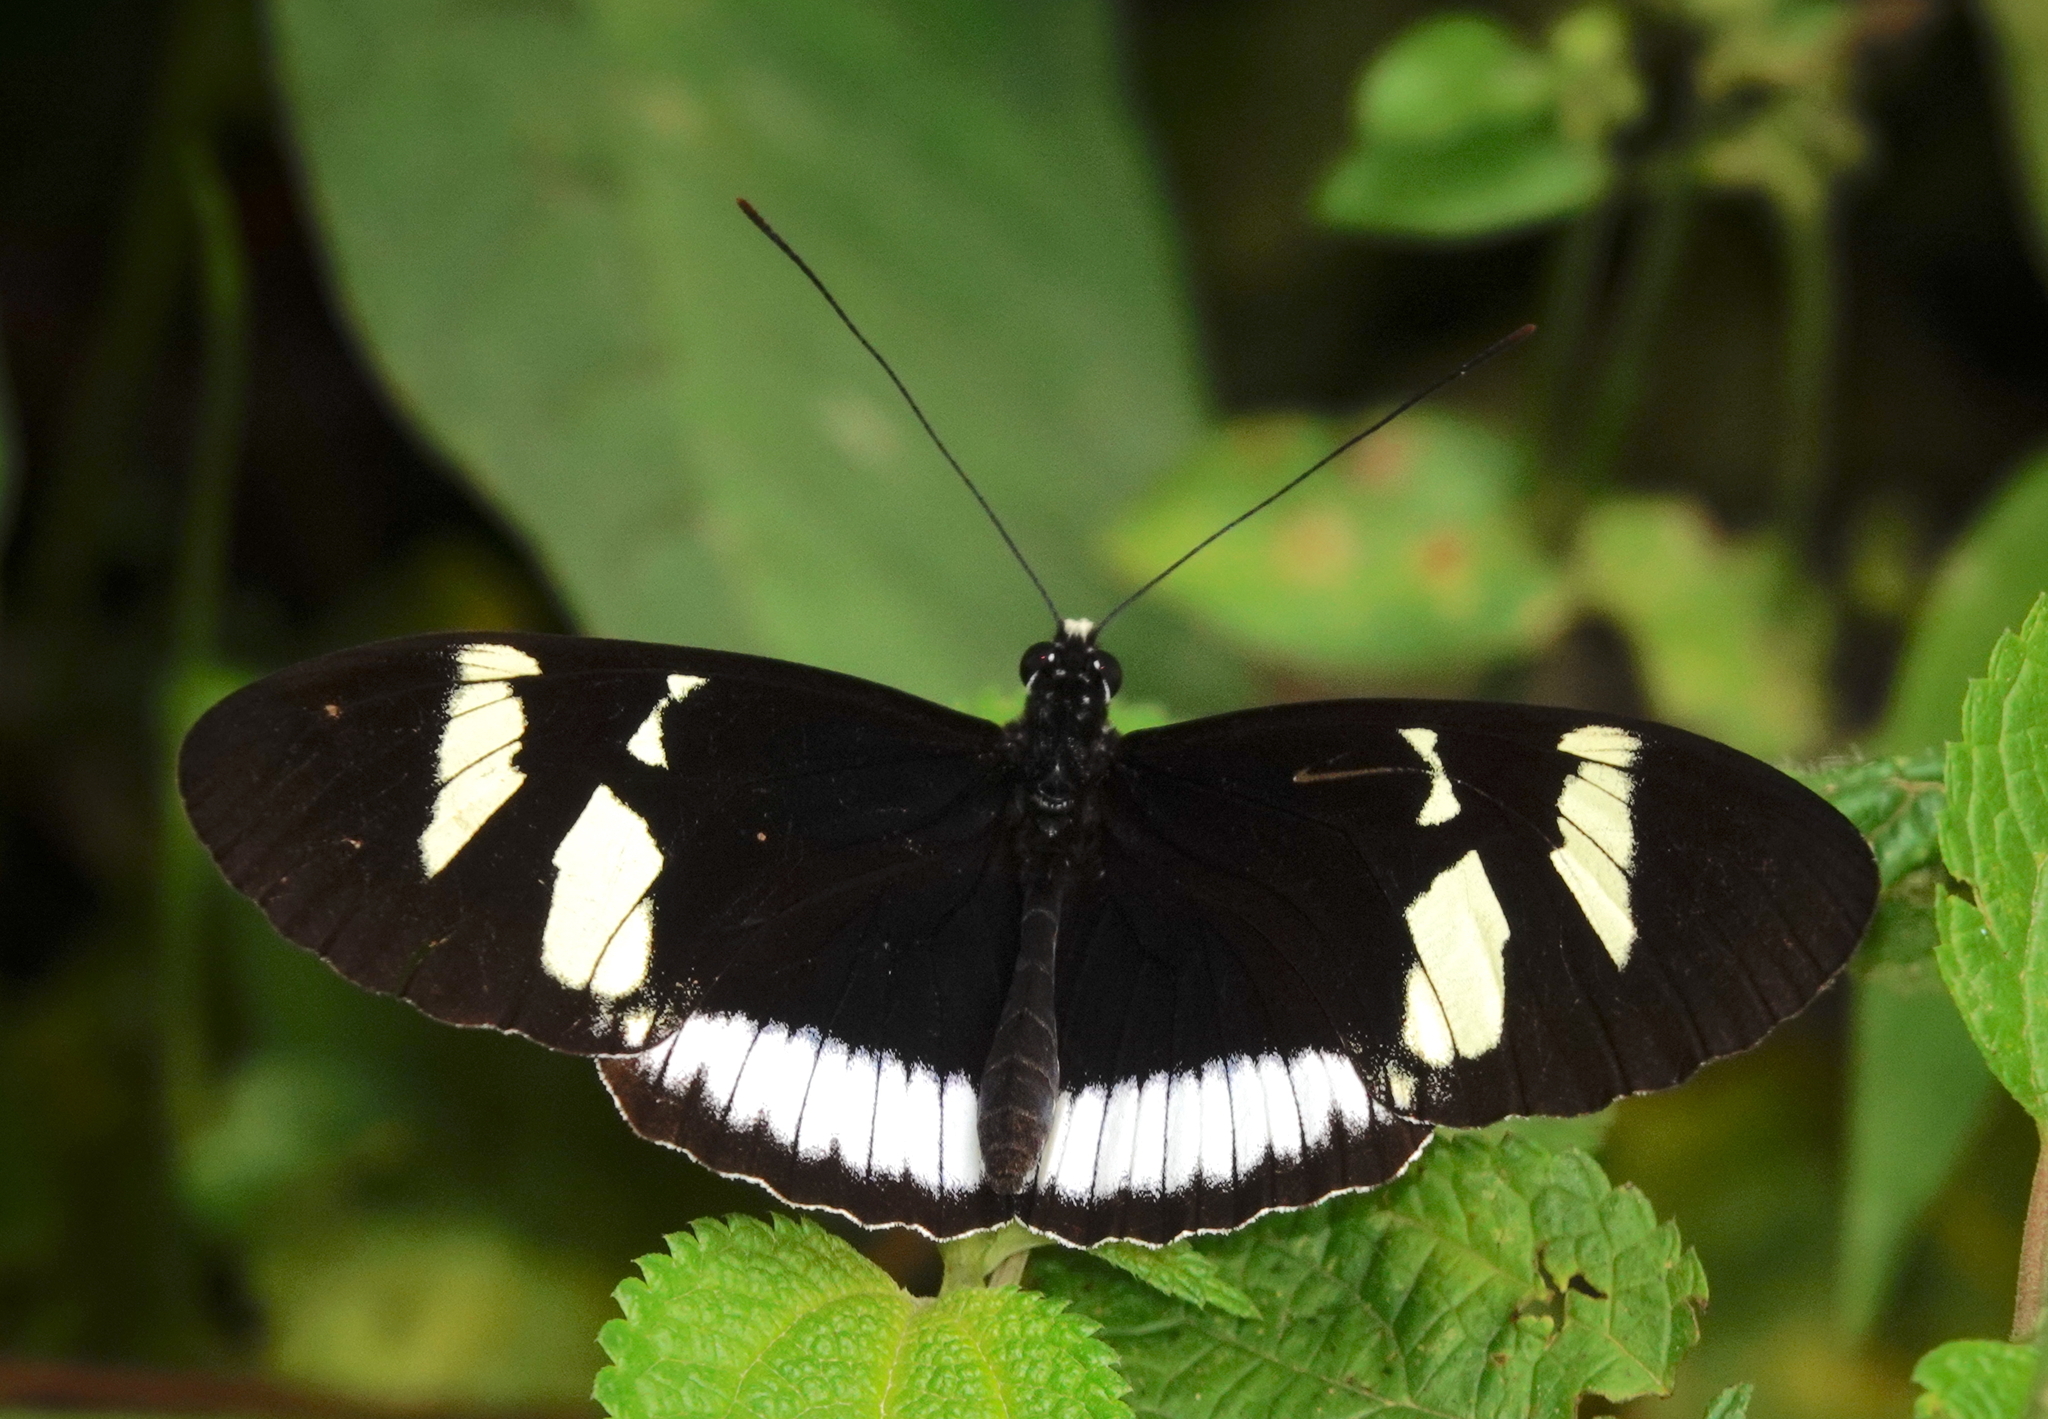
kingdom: Animalia
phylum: Arthropoda
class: Insecta
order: Lepidoptera
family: Nymphalidae
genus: Heliconius
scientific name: Heliconius cydno
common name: Cydno longwing
